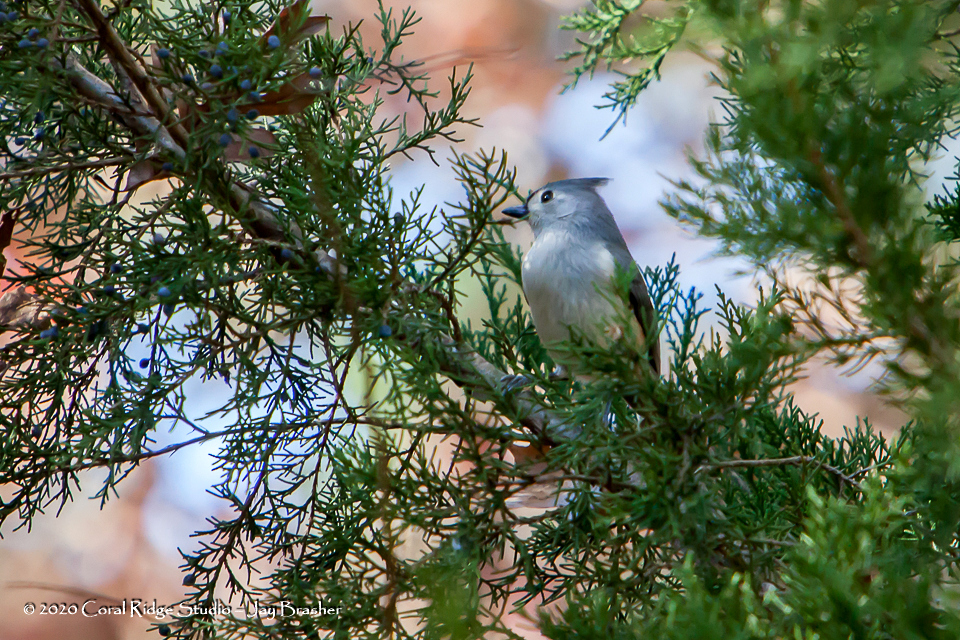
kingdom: Animalia
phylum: Chordata
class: Aves
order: Passeriformes
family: Paridae
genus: Baeolophus
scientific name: Baeolophus bicolor
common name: Tufted titmouse
